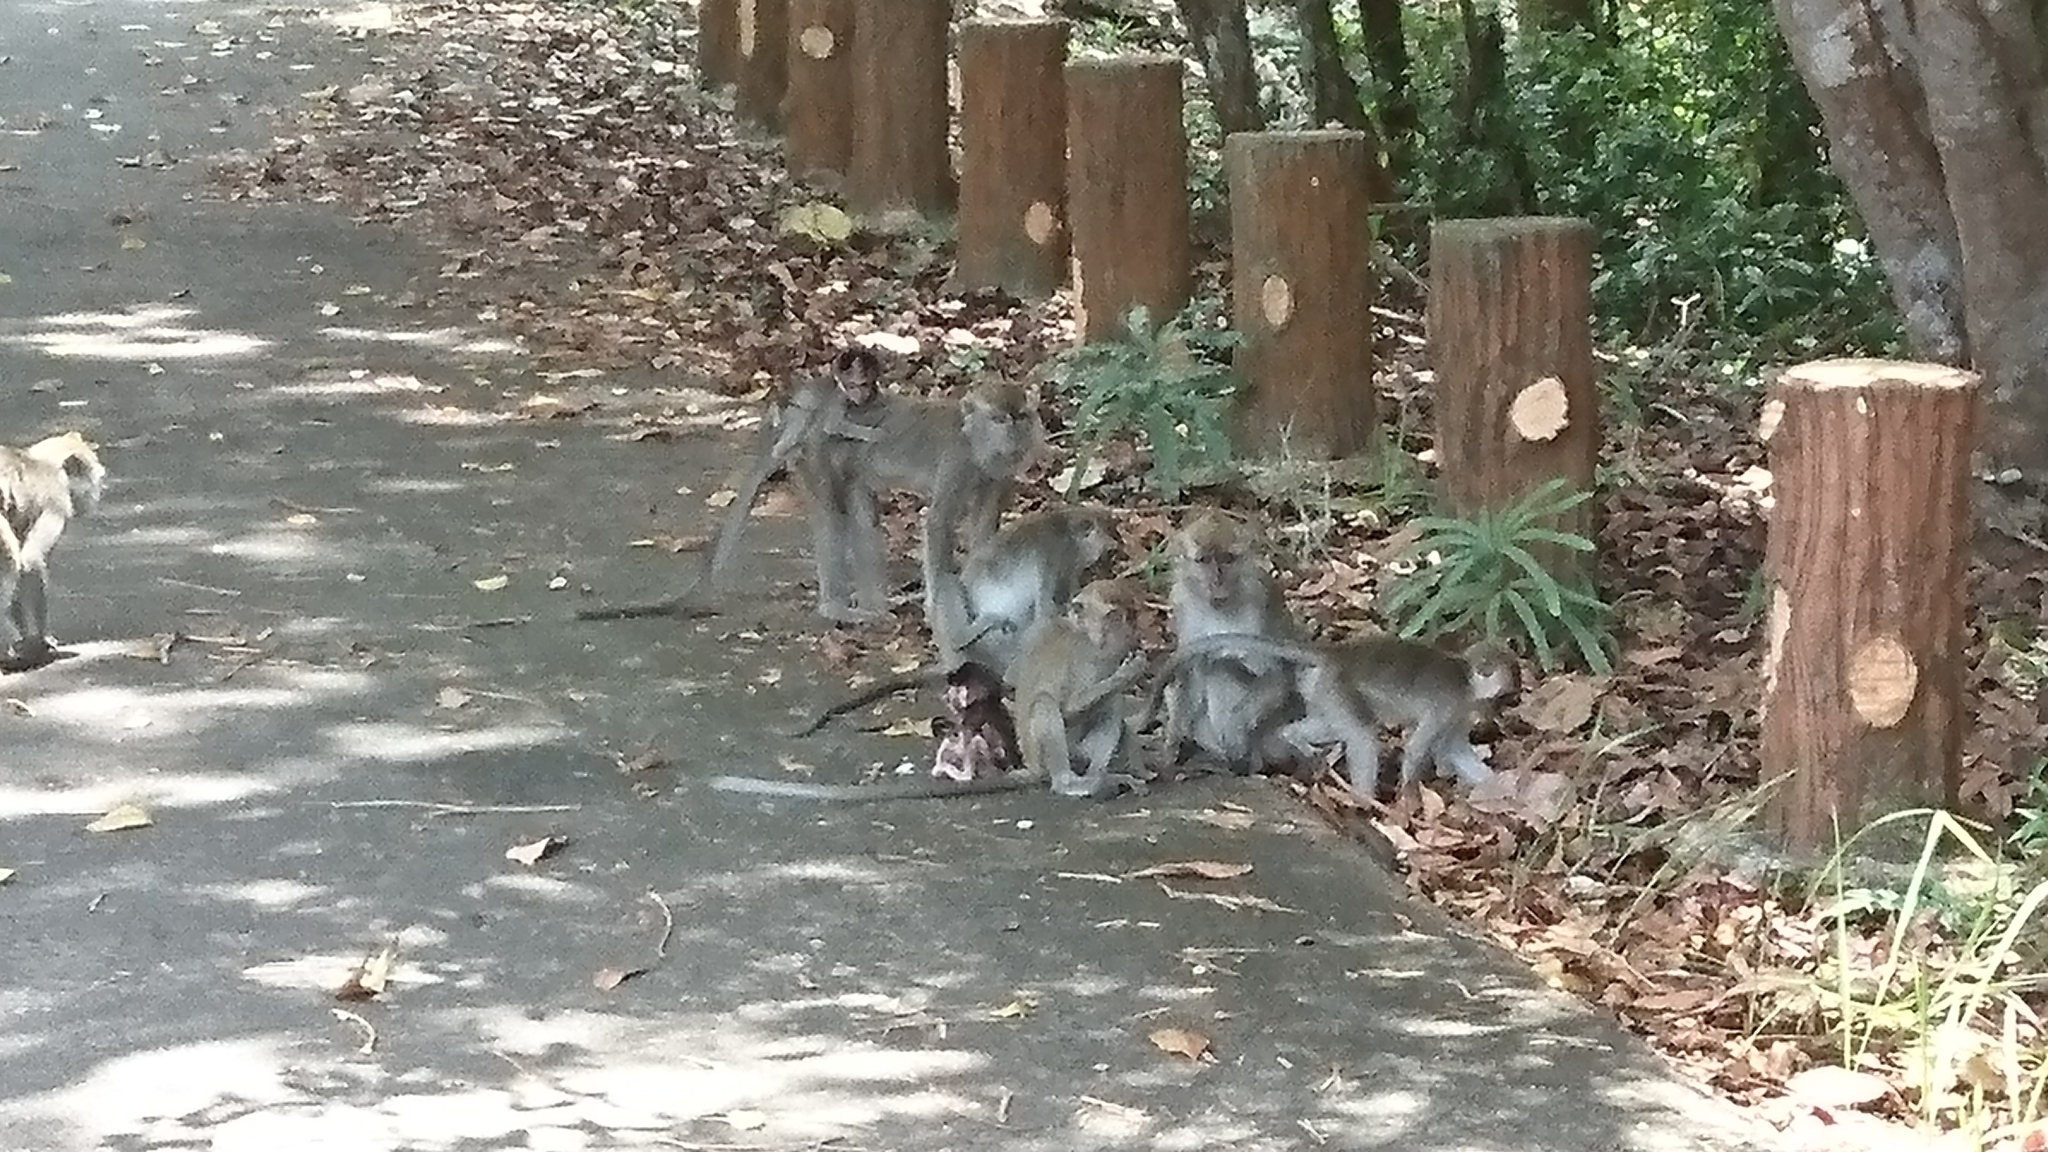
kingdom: Animalia
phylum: Chordata
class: Mammalia
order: Primates
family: Cercopithecidae
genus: Macaca
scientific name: Macaca fascicularis
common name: Crab-eating macaque
